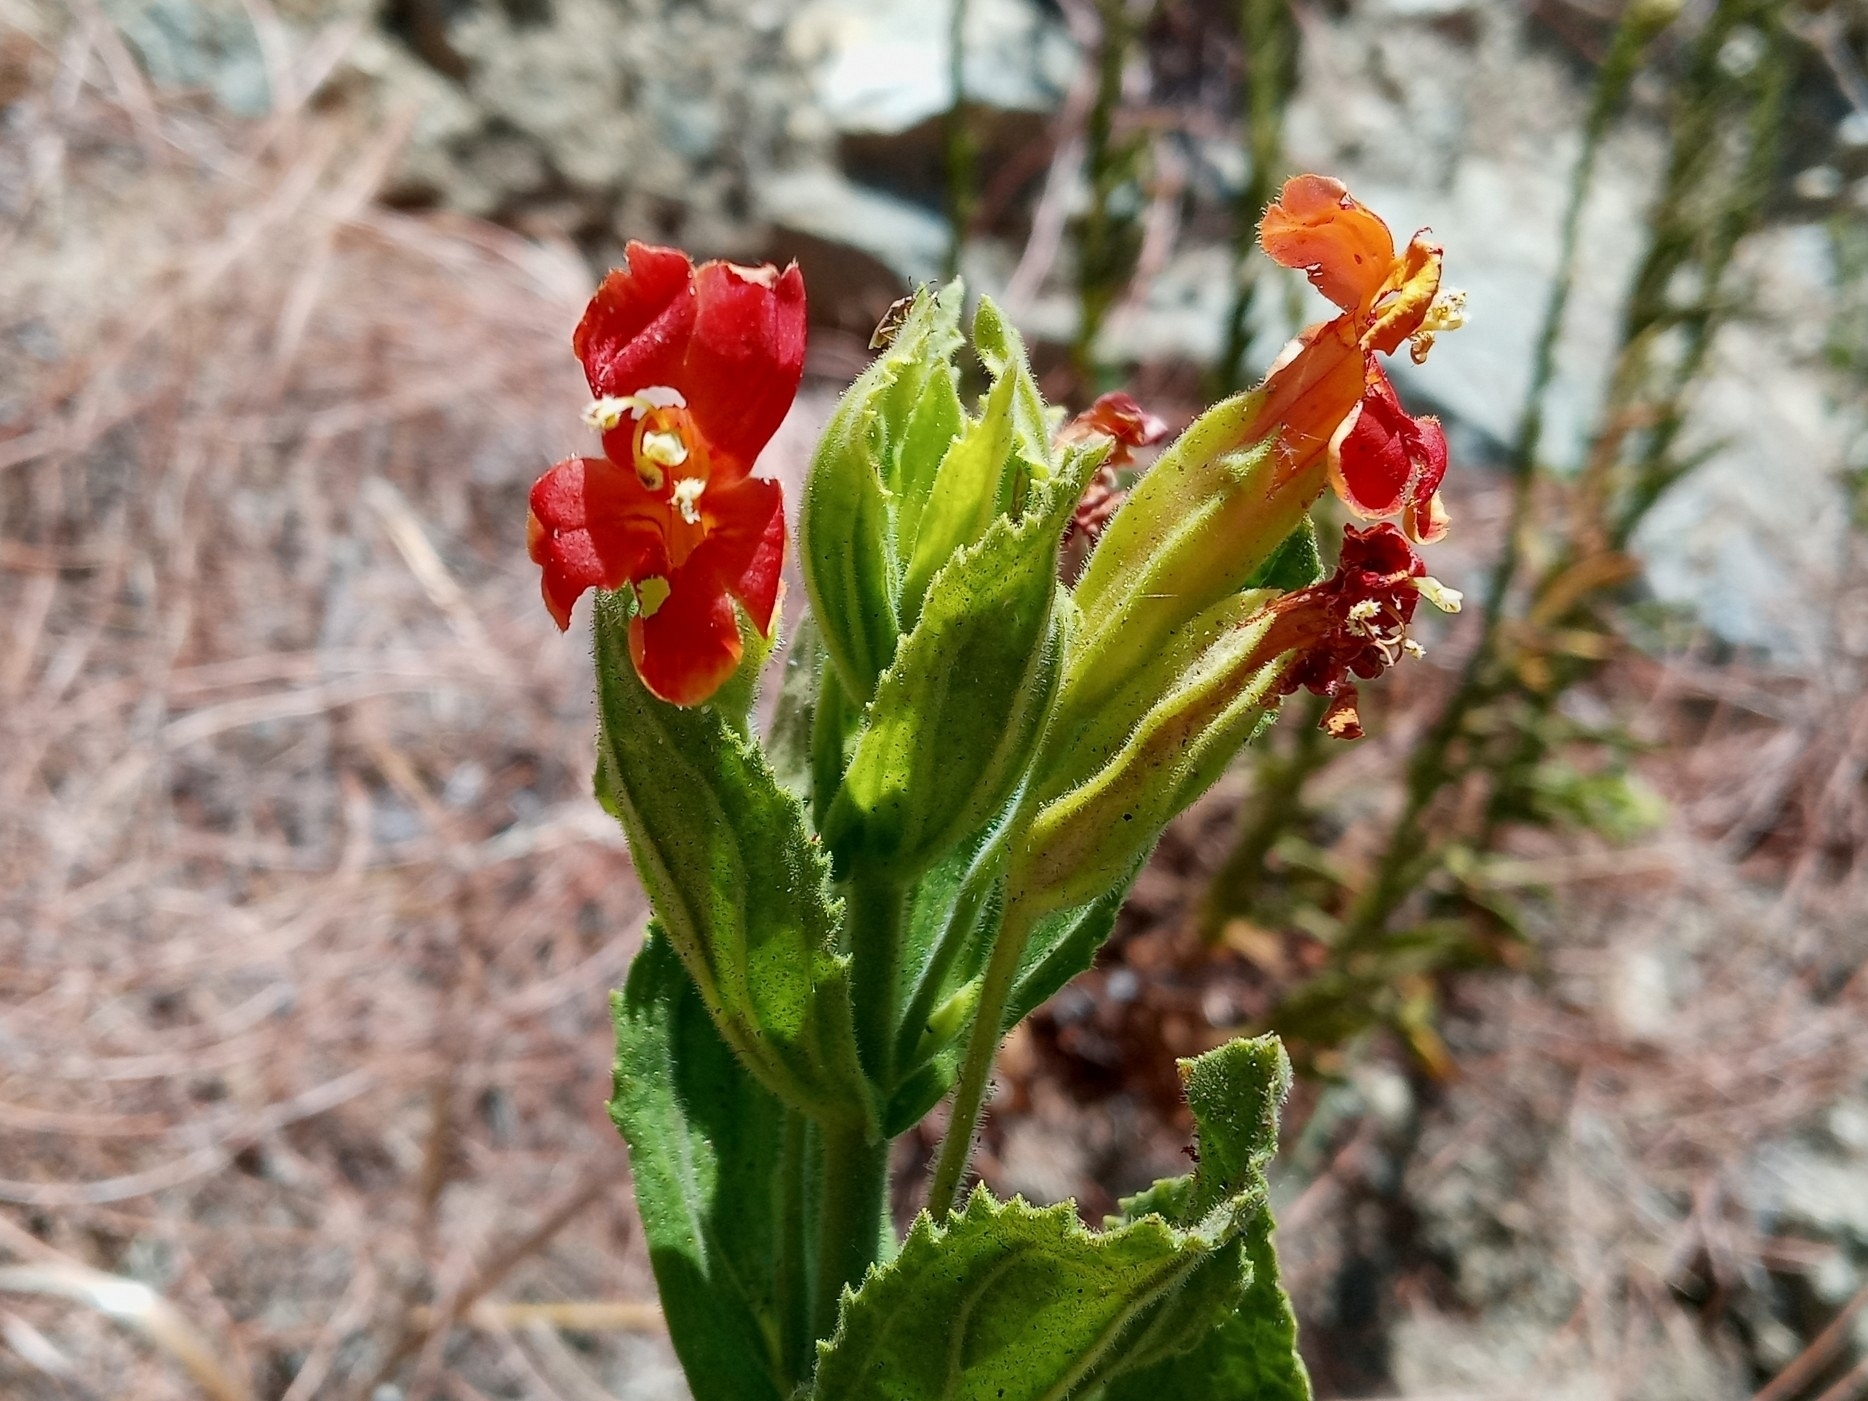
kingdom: Plantae
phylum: Tracheophyta
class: Magnoliopsida
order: Lamiales
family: Phrymaceae
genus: Erythranthe
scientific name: Erythranthe cardinalis
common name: Scarlet monkey-flower
